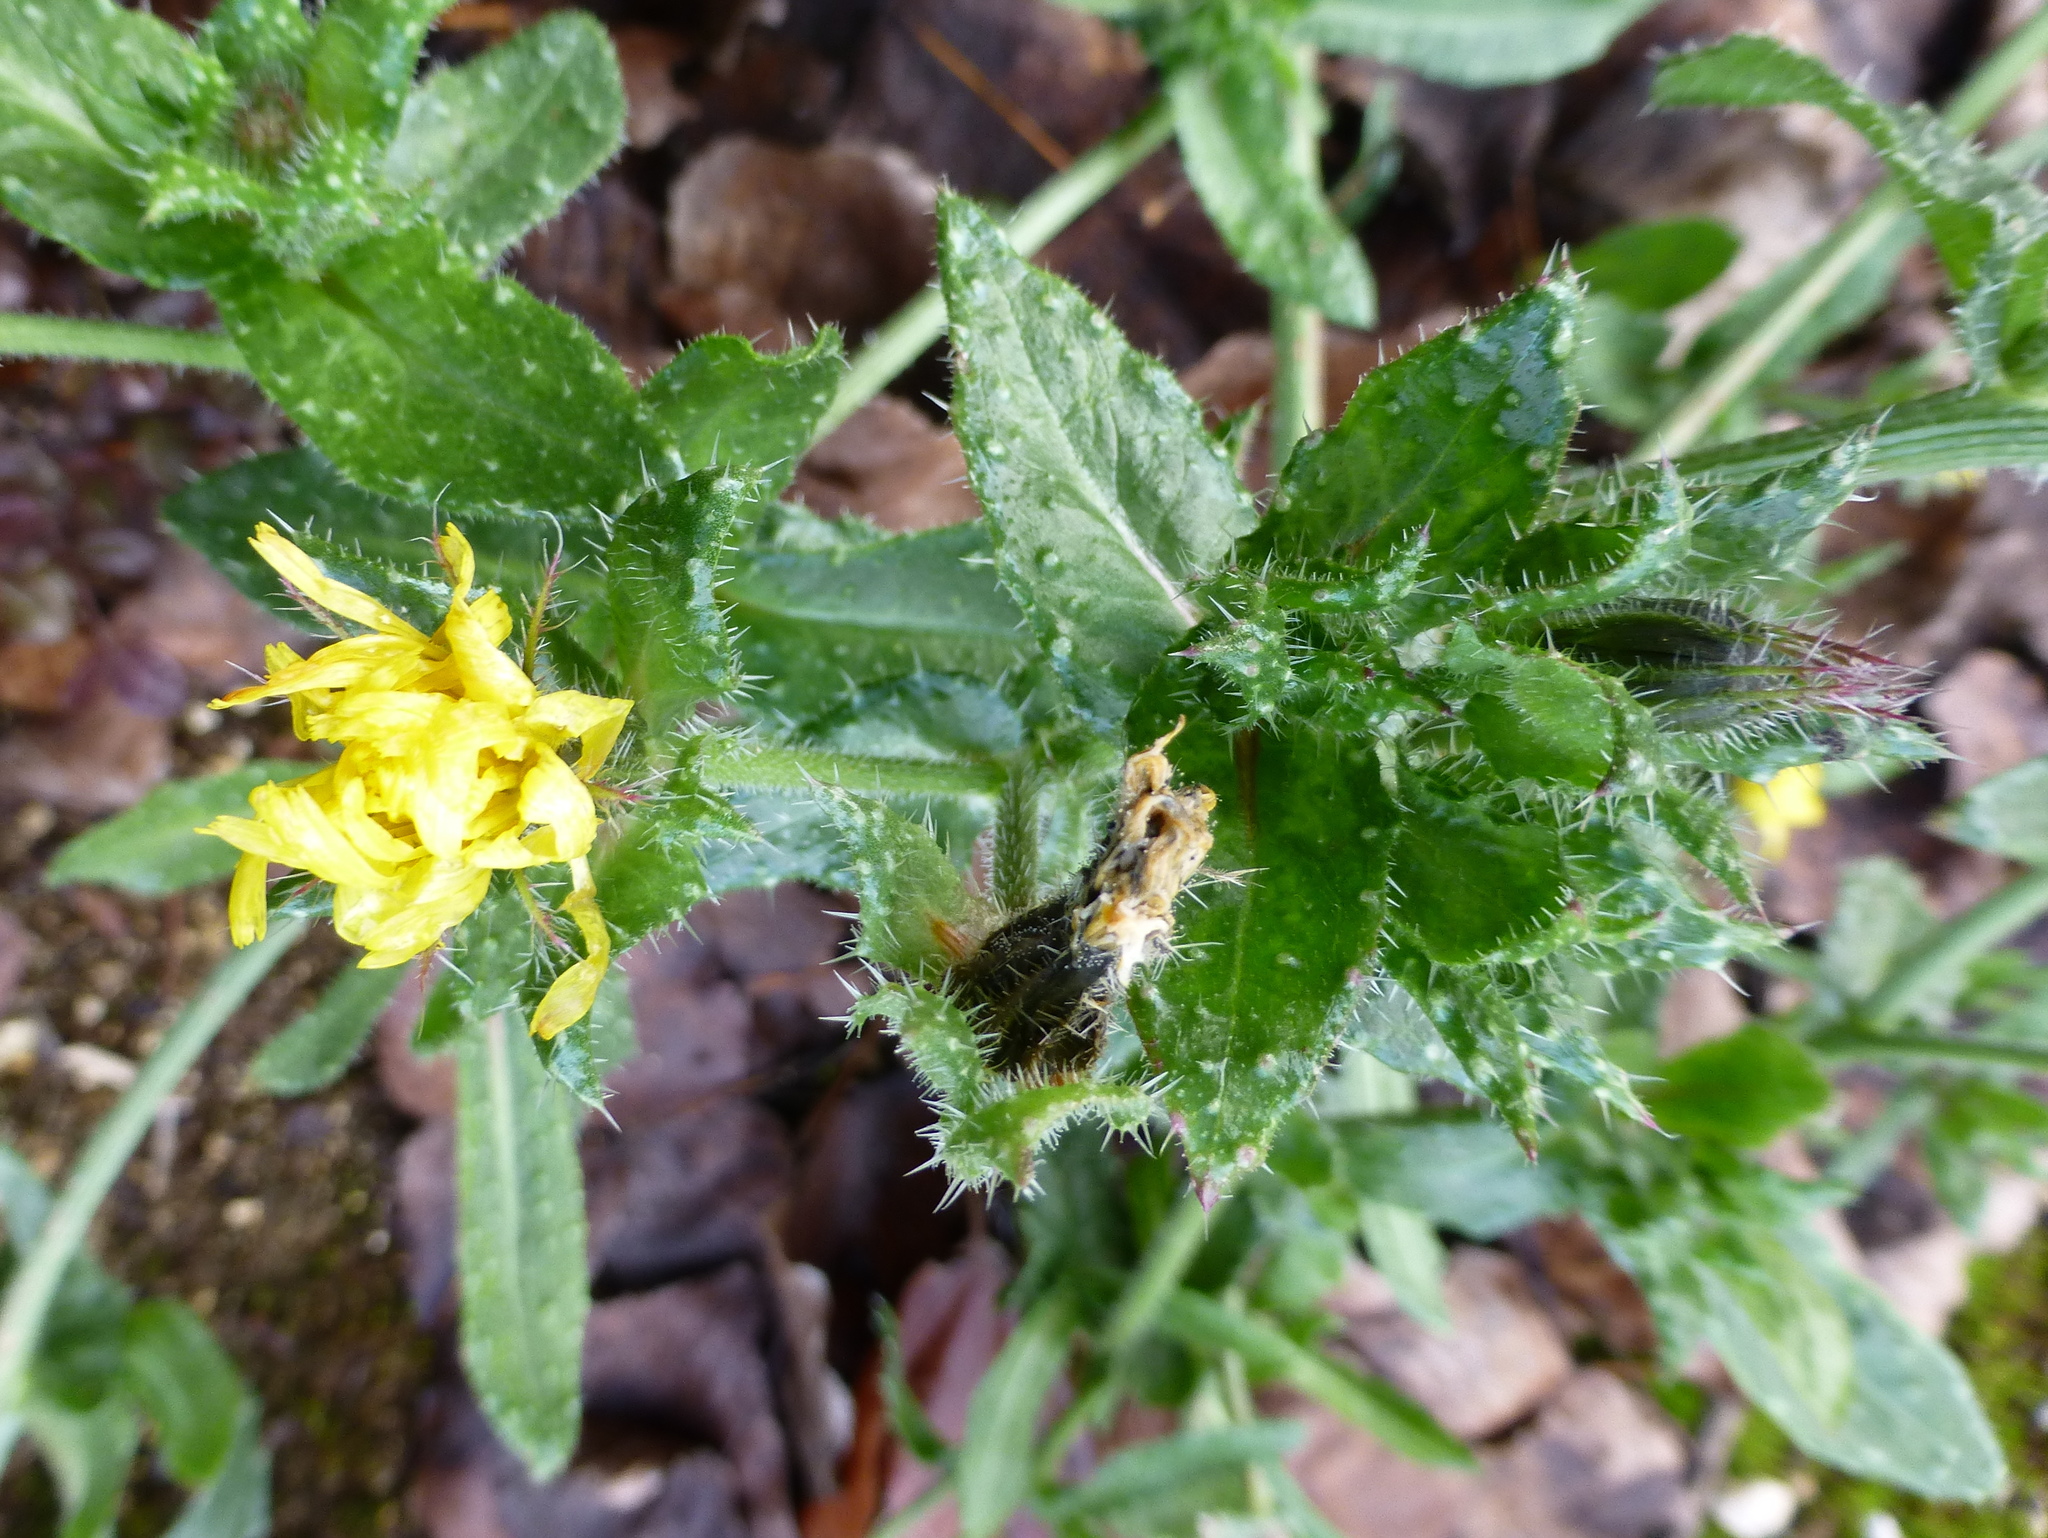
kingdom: Plantae
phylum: Tracheophyta
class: Magnoliopsida
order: Asterales
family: Asteraceae
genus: Helminthotheca
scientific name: Helminthotheca echioides
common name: Ox-tongue
